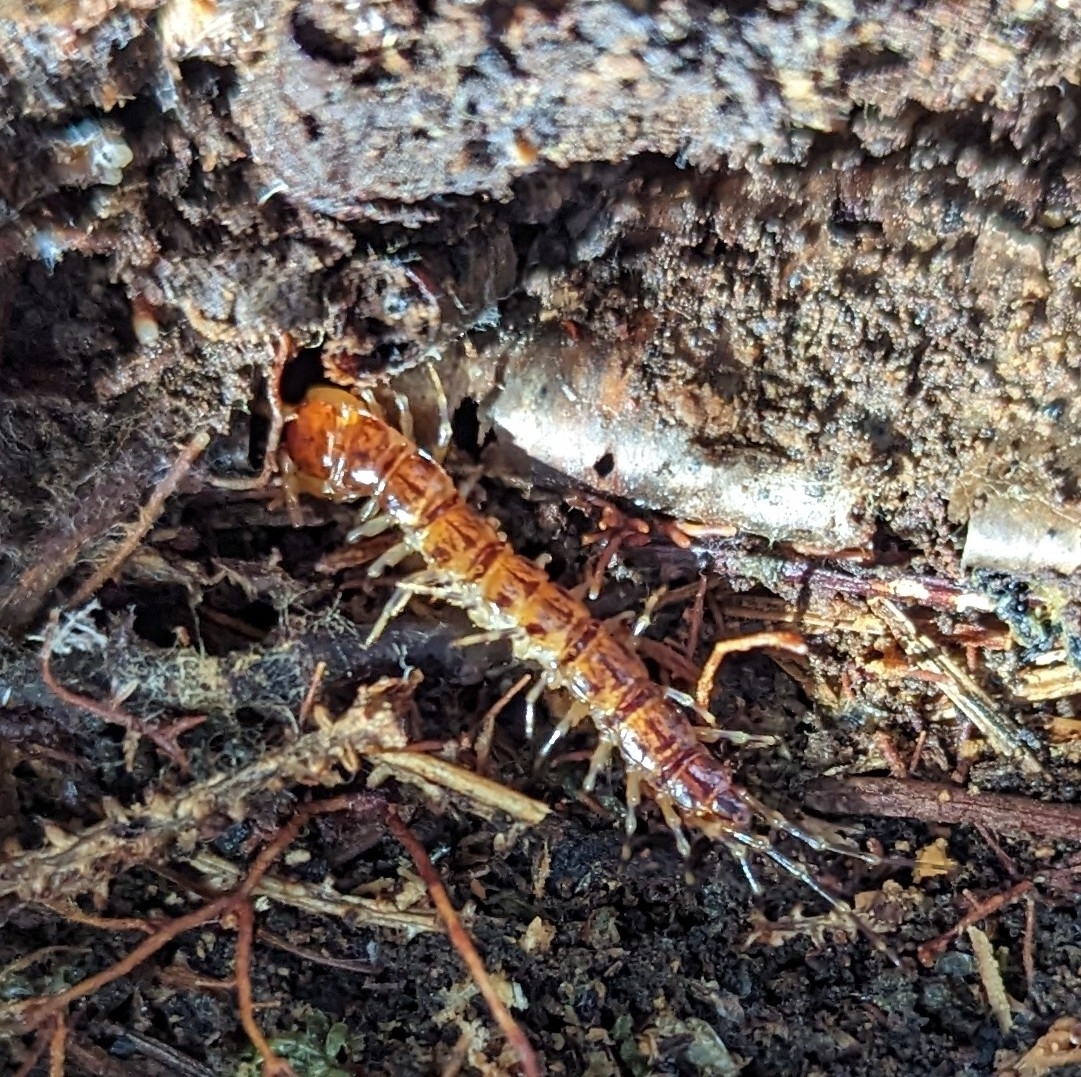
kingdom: Animalia
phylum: Arthropoda
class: Chilopoda
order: Lithobiomorpha
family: Lithobiidae
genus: Lithobius
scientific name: Lithobius variegatus
